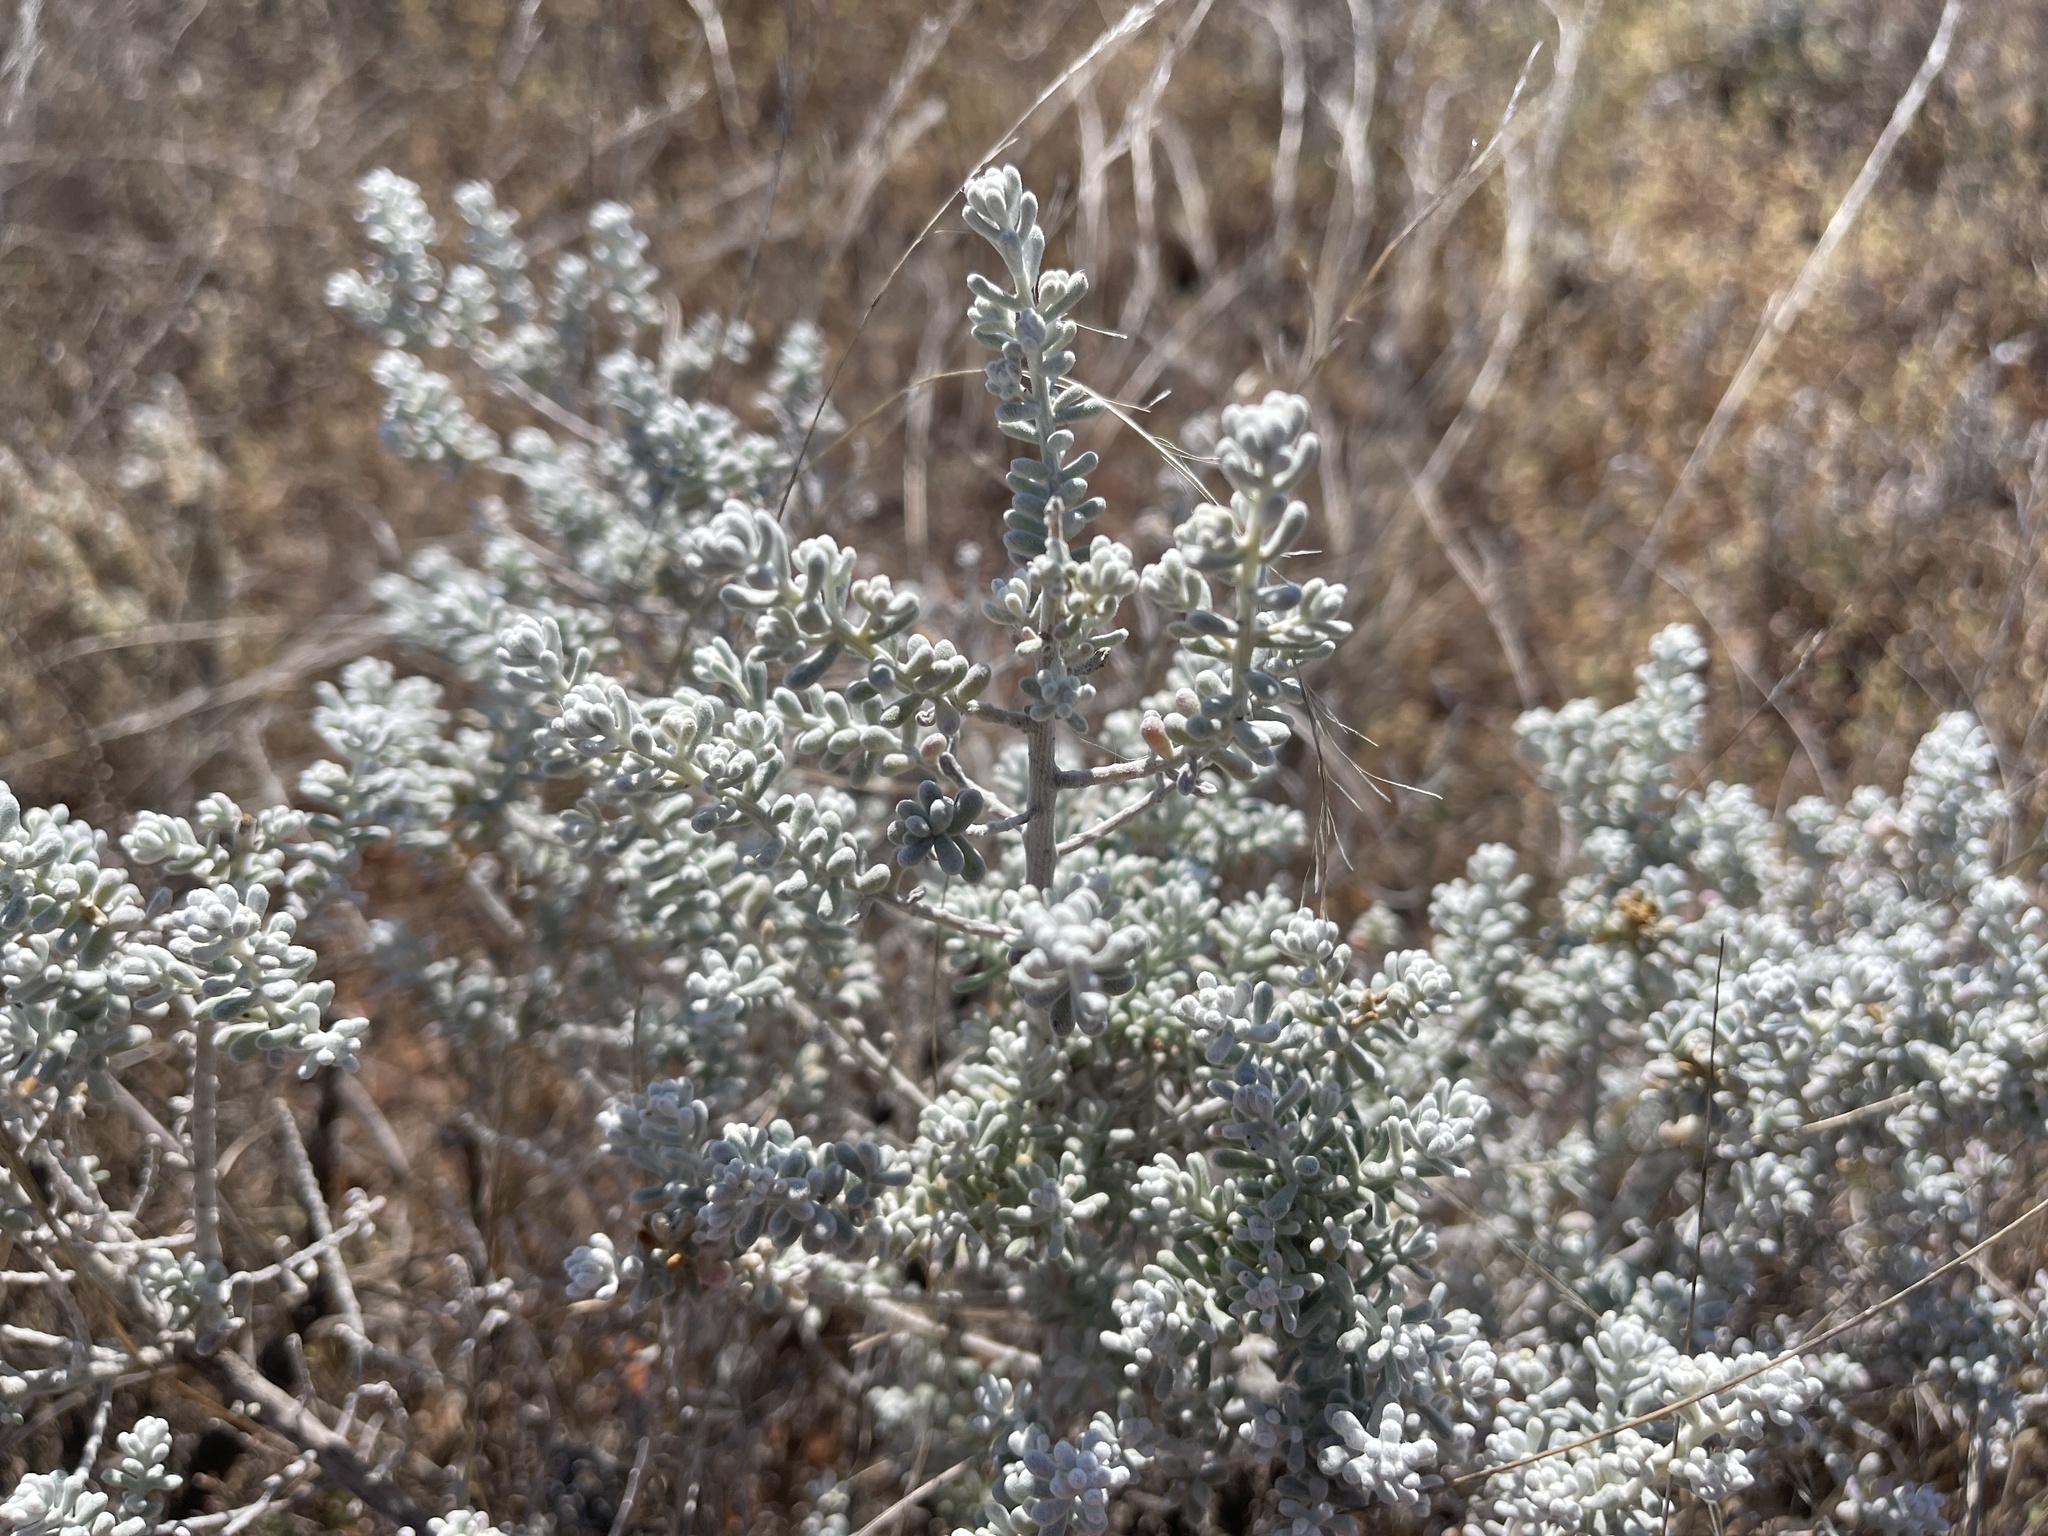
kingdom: Plantae
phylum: Tracheophyta
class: Magnoliopsida
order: Caryophyllales
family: Amaranthaceae
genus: Maireana
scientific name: Maireana sedifolia
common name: Hoary bluebush
